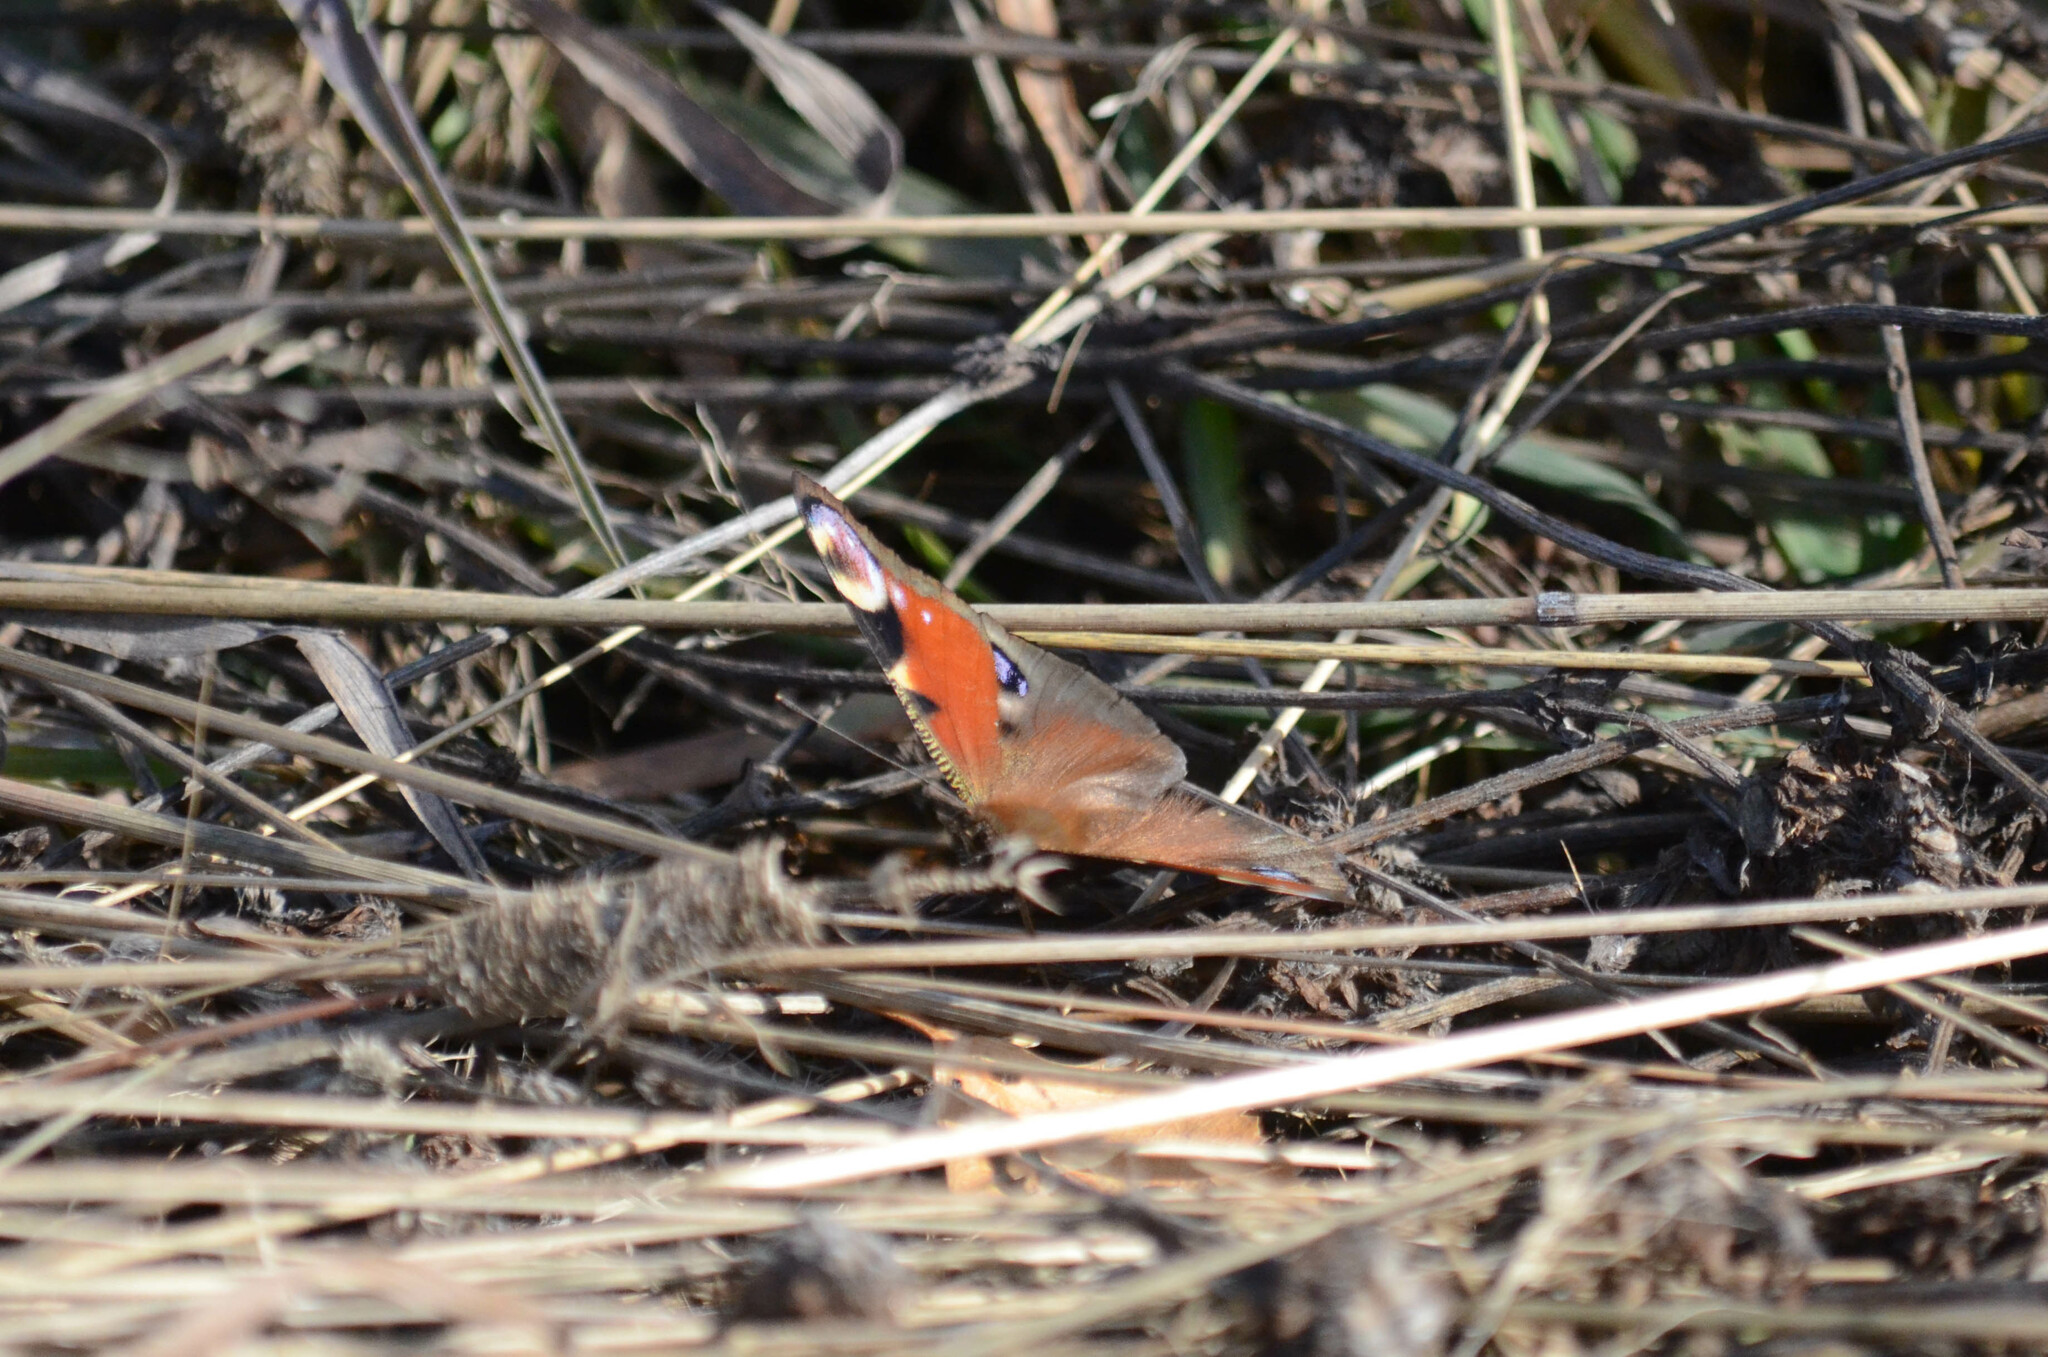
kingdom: Animalia
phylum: Arthropoda
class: Insecta
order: Lepidoptera
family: Nymphalidae
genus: Aglais
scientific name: Aglais io
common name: Peacock
